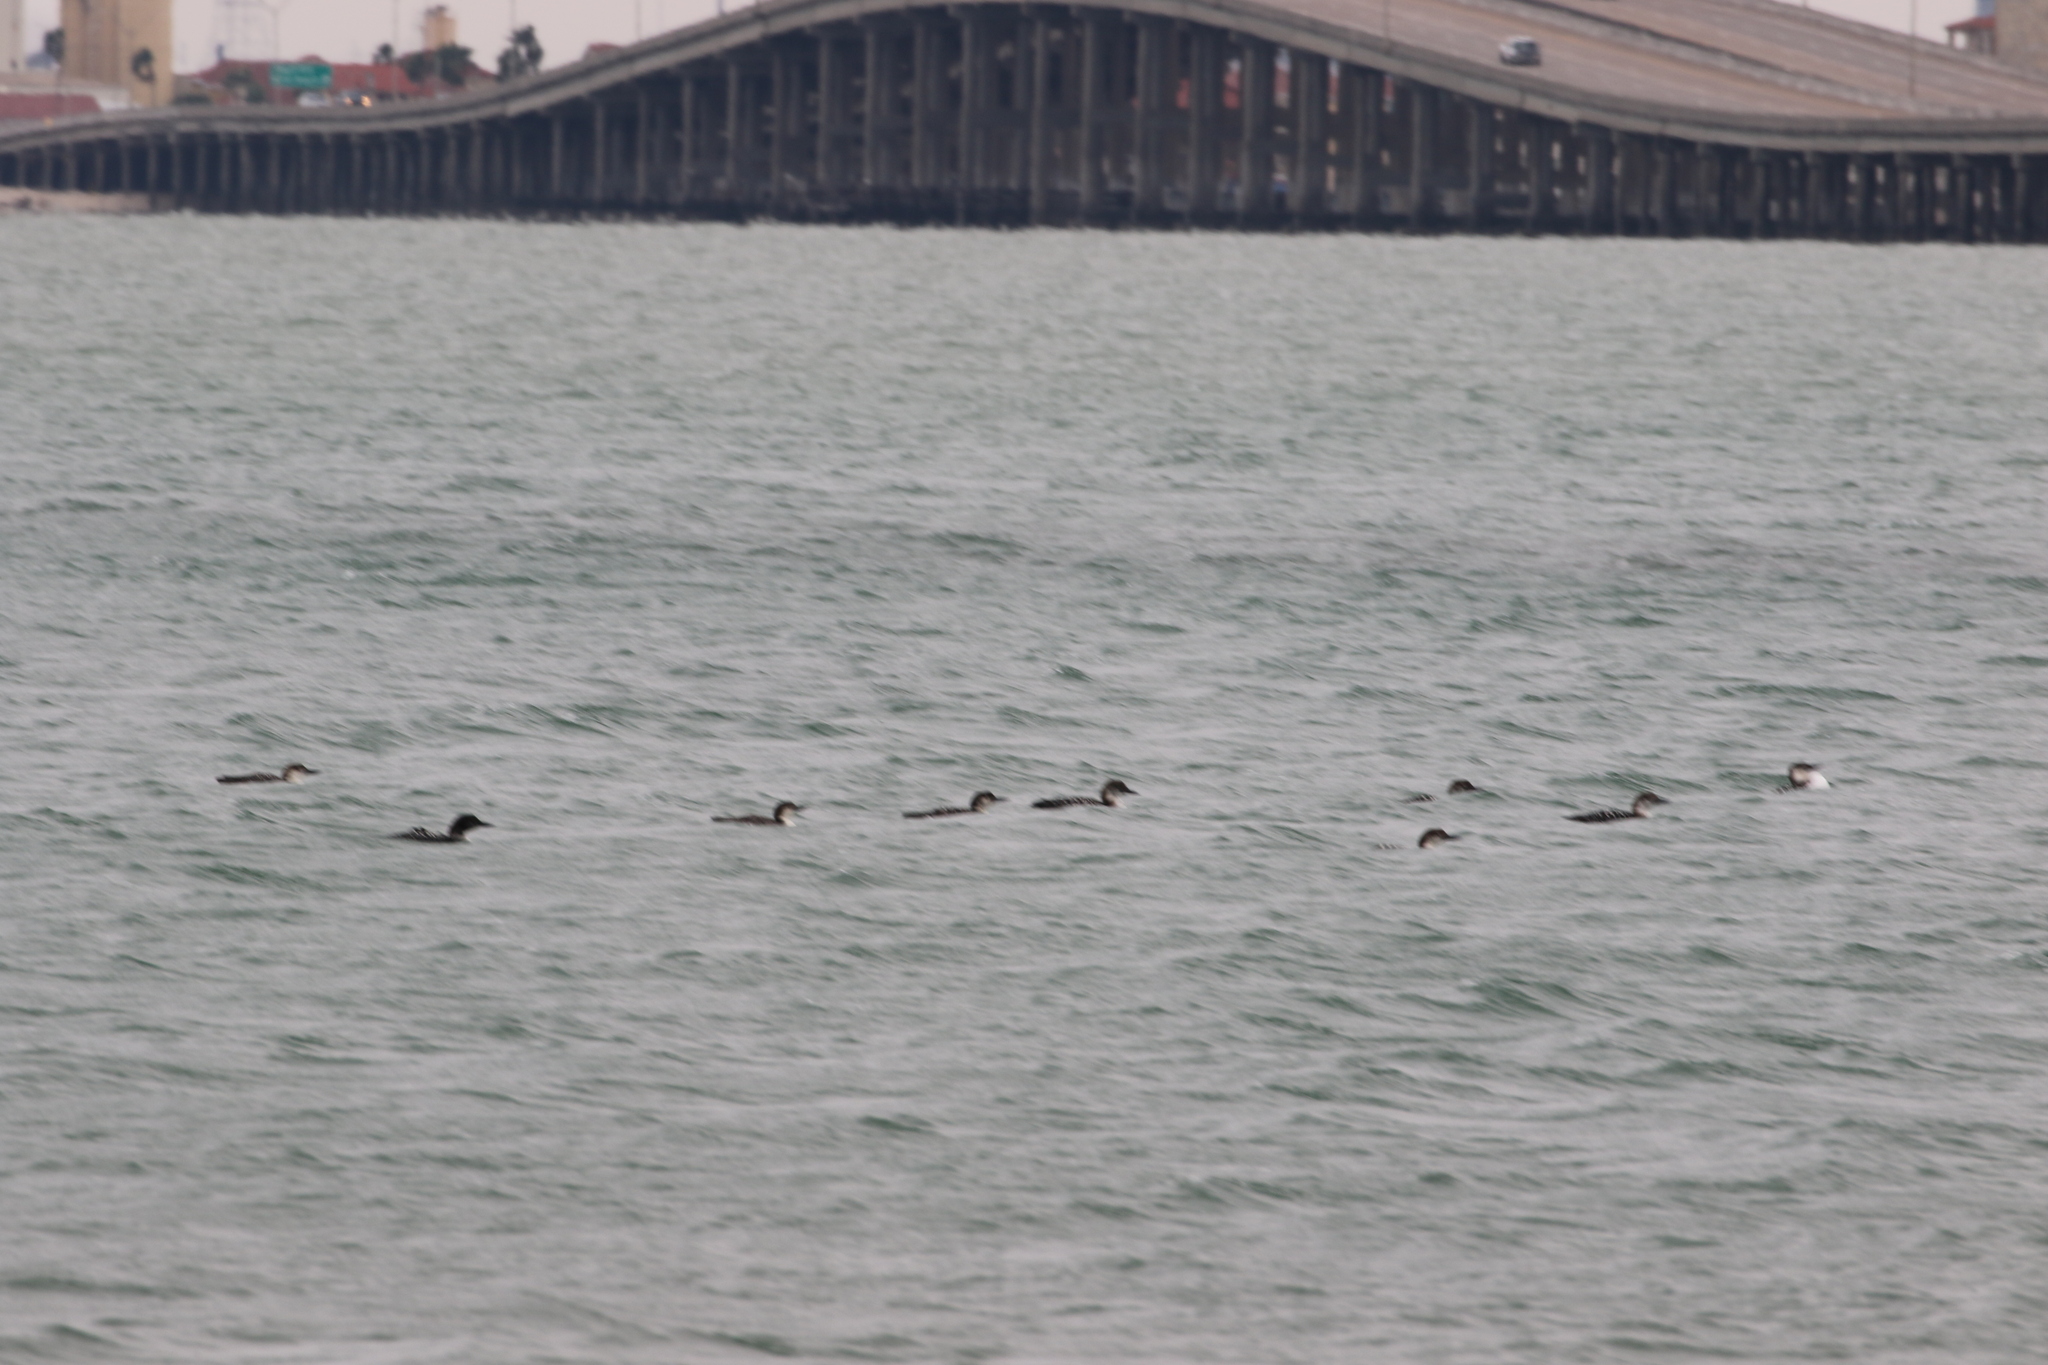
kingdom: Animalia
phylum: Chordata
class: Aves
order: Gaviiformes
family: Gaviidae
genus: Gavia
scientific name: Gavia immer
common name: Common loon
